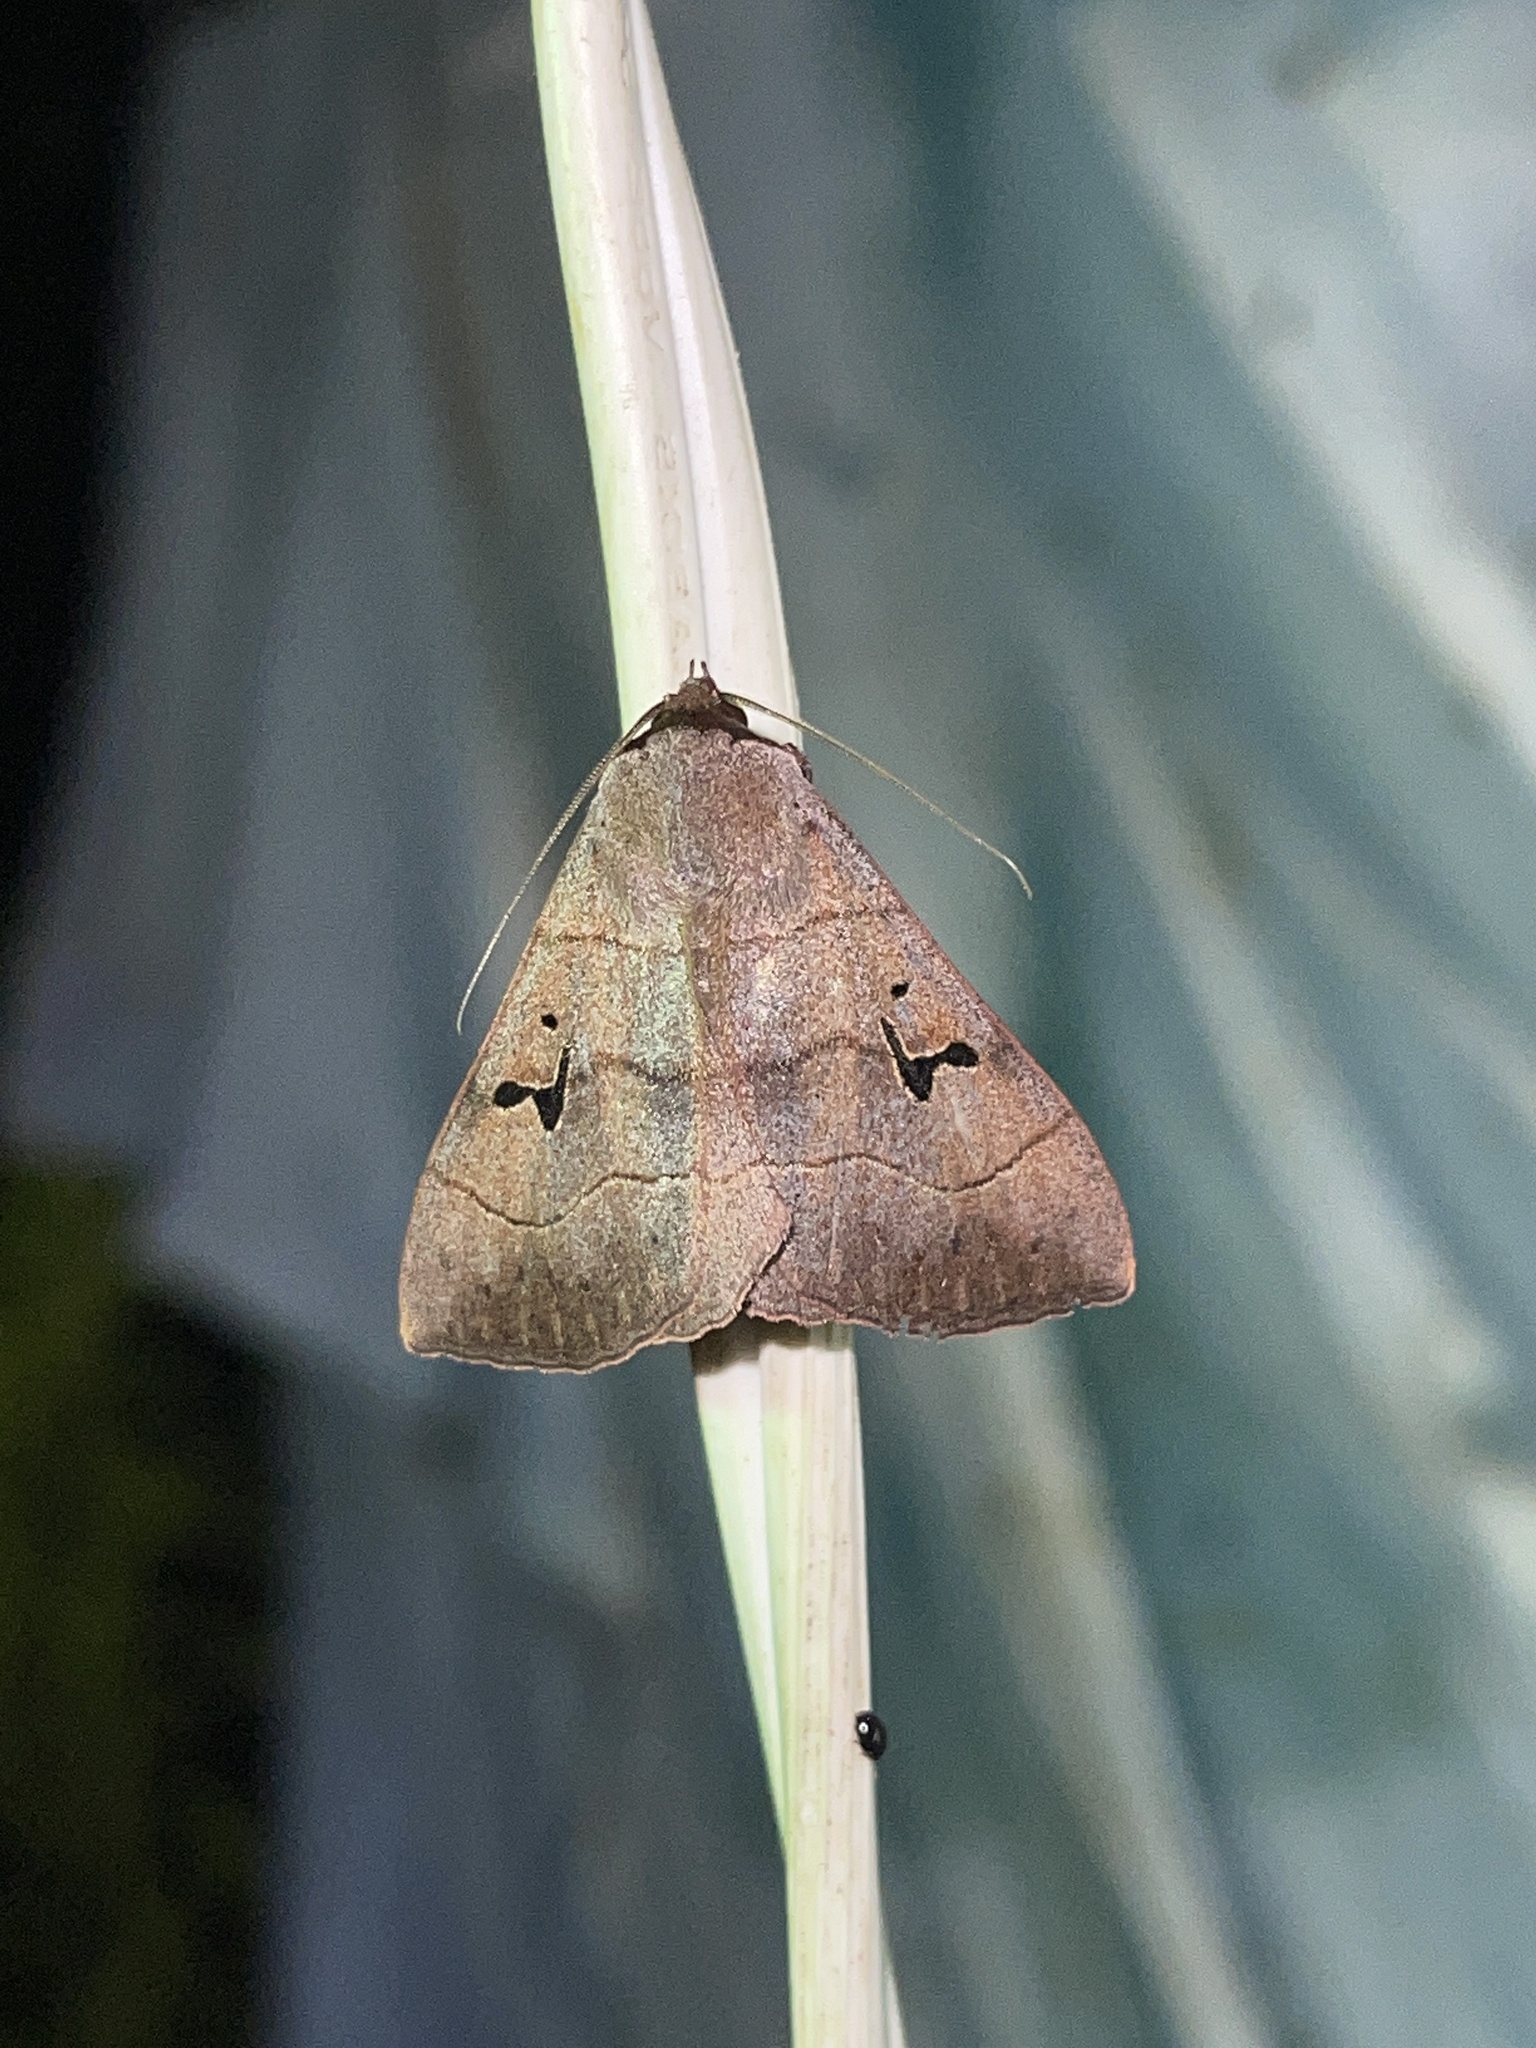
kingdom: Animalia
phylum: Arthropoda
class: Insecta
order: Lepidoptera
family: Erebidae
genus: Panopoda
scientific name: Panopoda carneicosta
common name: Brown panopoda moth
